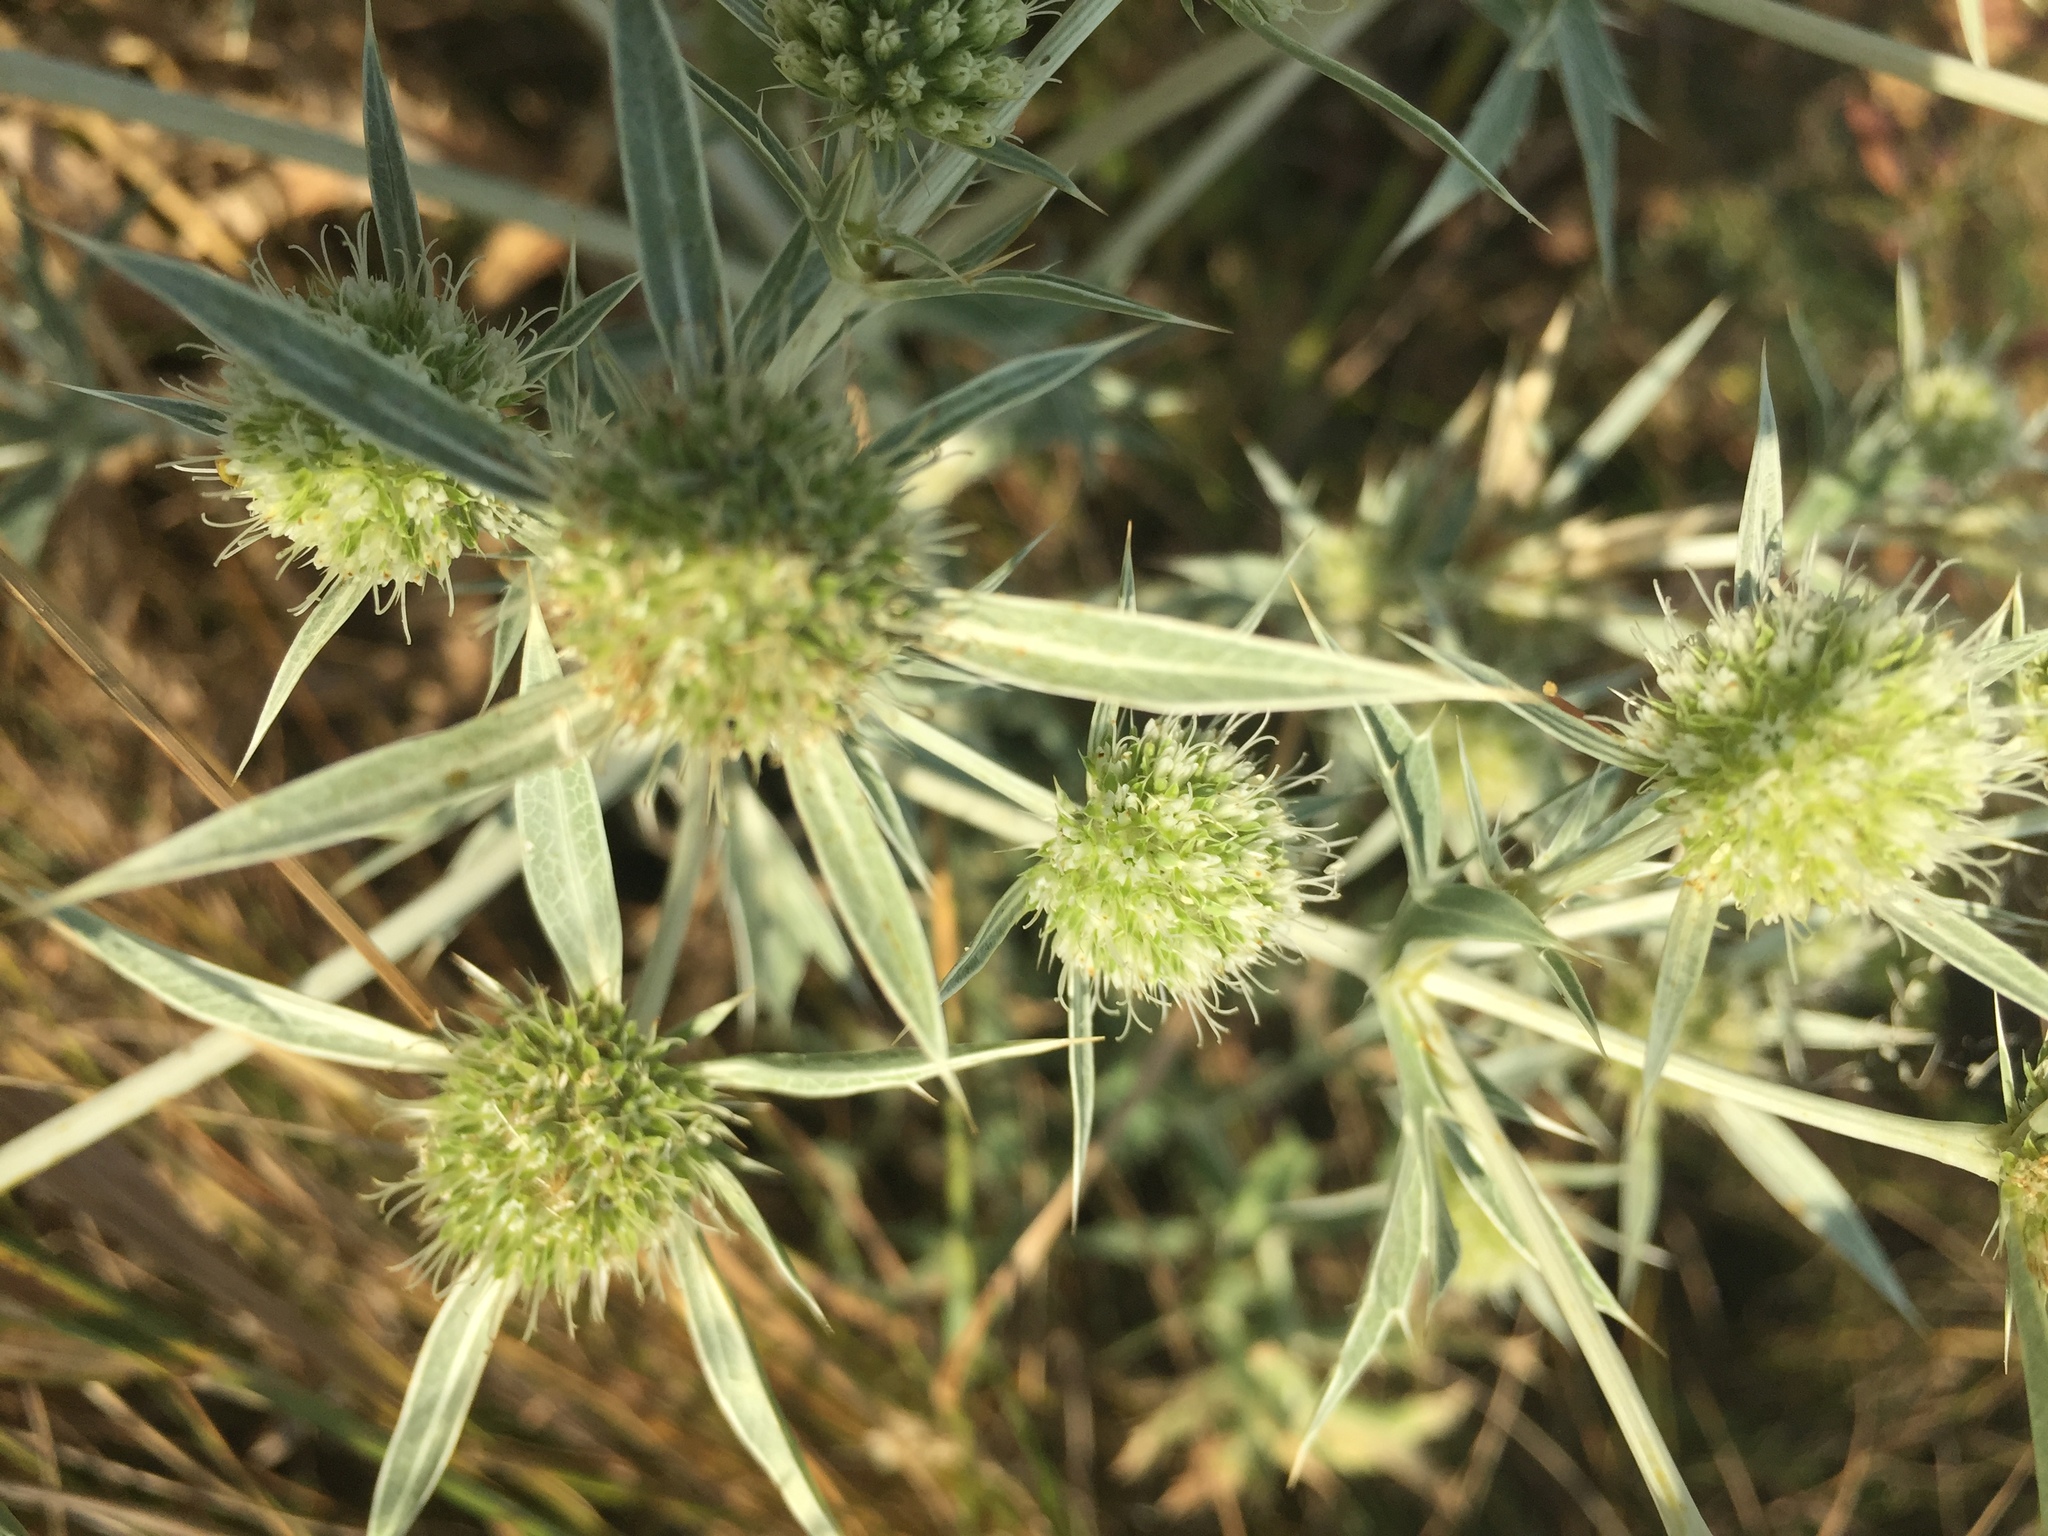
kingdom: Plantae
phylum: Tracheophyta
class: Magnoliopsida
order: Apiales
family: Apiaceae
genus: Eryngium
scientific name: Eryngium campestre
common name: Field eryngo
